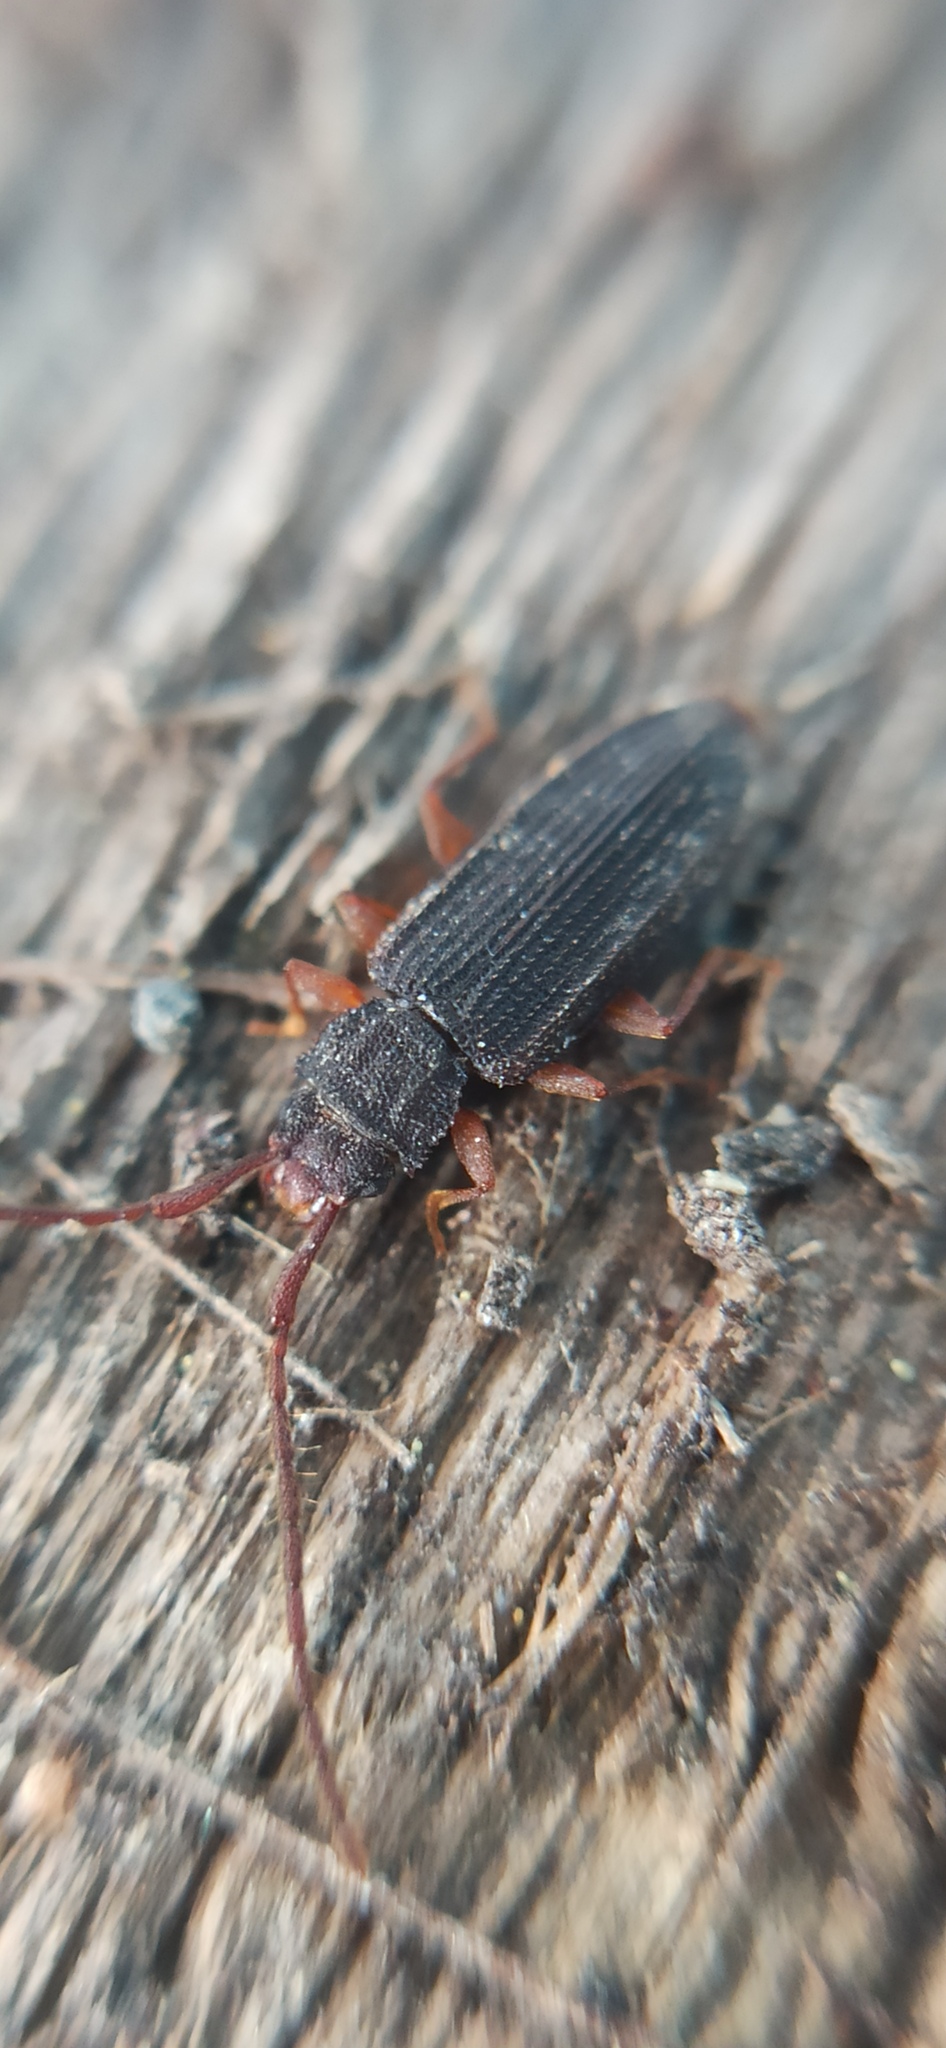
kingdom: Animalia
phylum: Arthropoda
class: Insecta
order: Coleoptera
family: Silvanidae
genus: Uleiota
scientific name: Uleiota planatus
